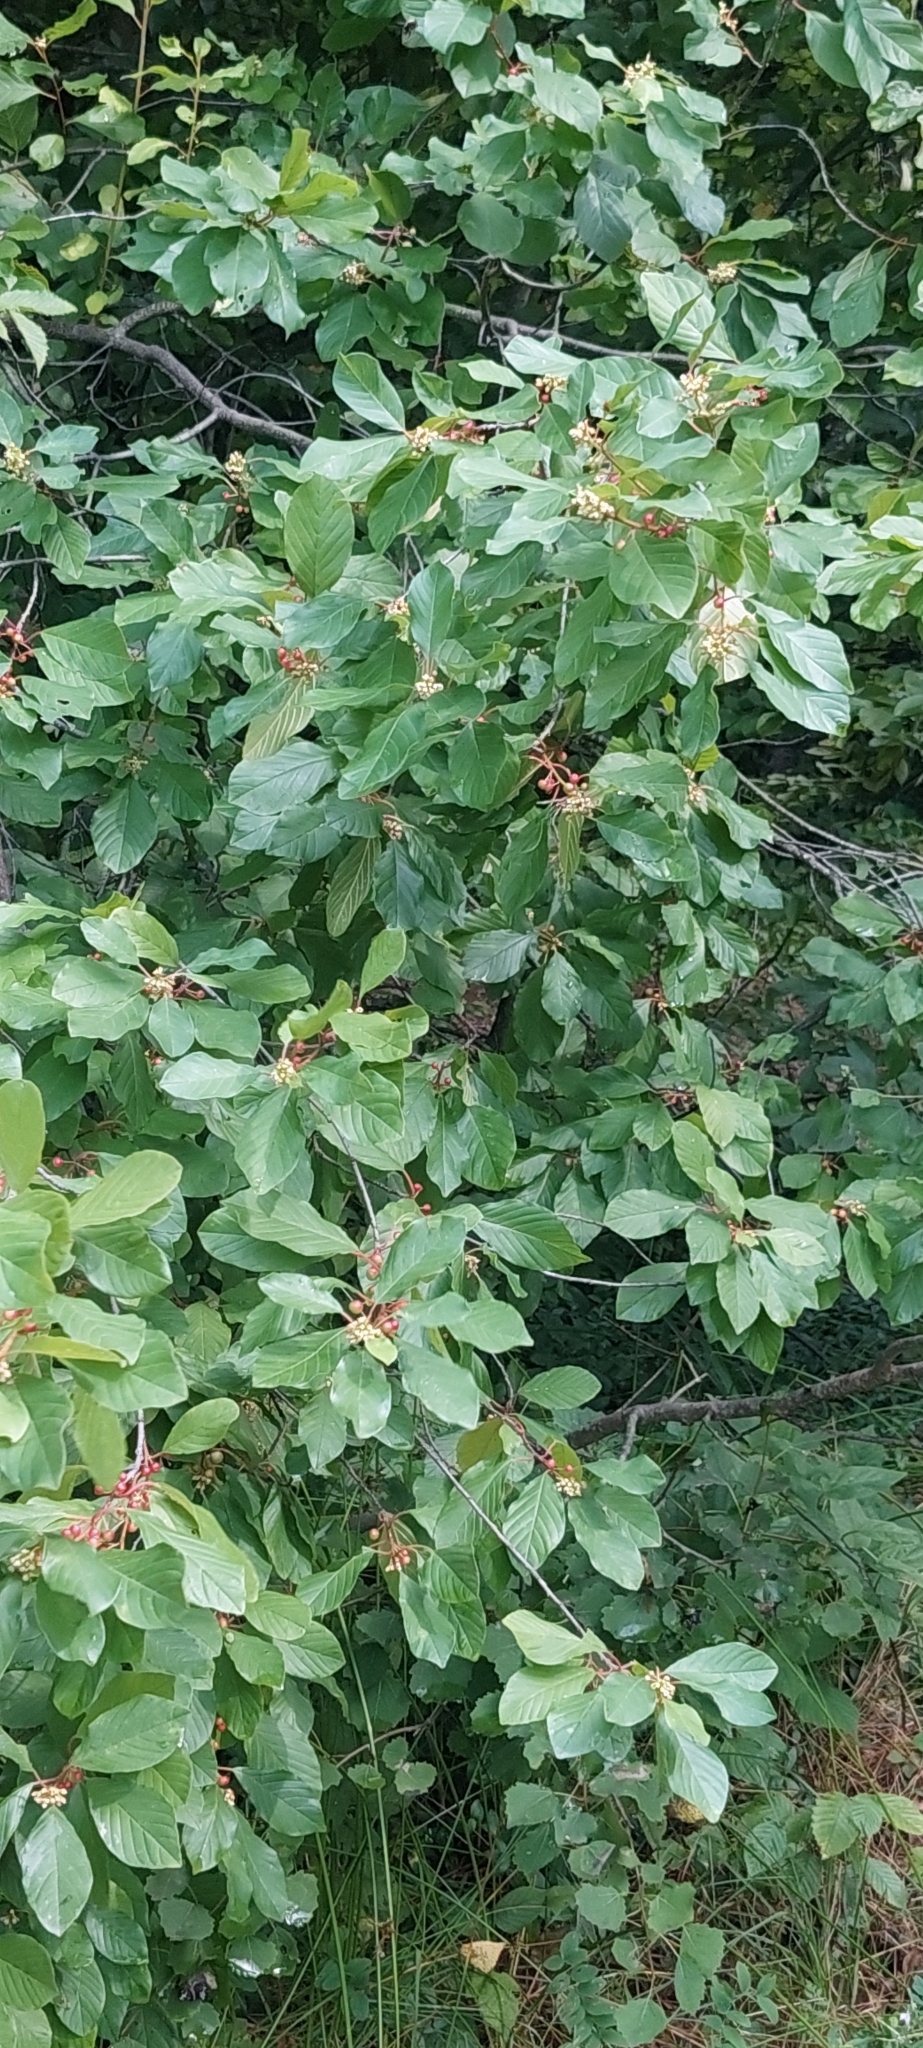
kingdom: Plantae
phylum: Tracheophyta
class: Magnoliopsida
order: Rosales
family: Rhamnaceae
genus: Frangula
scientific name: Frangula alnus
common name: Alder buckthorn
